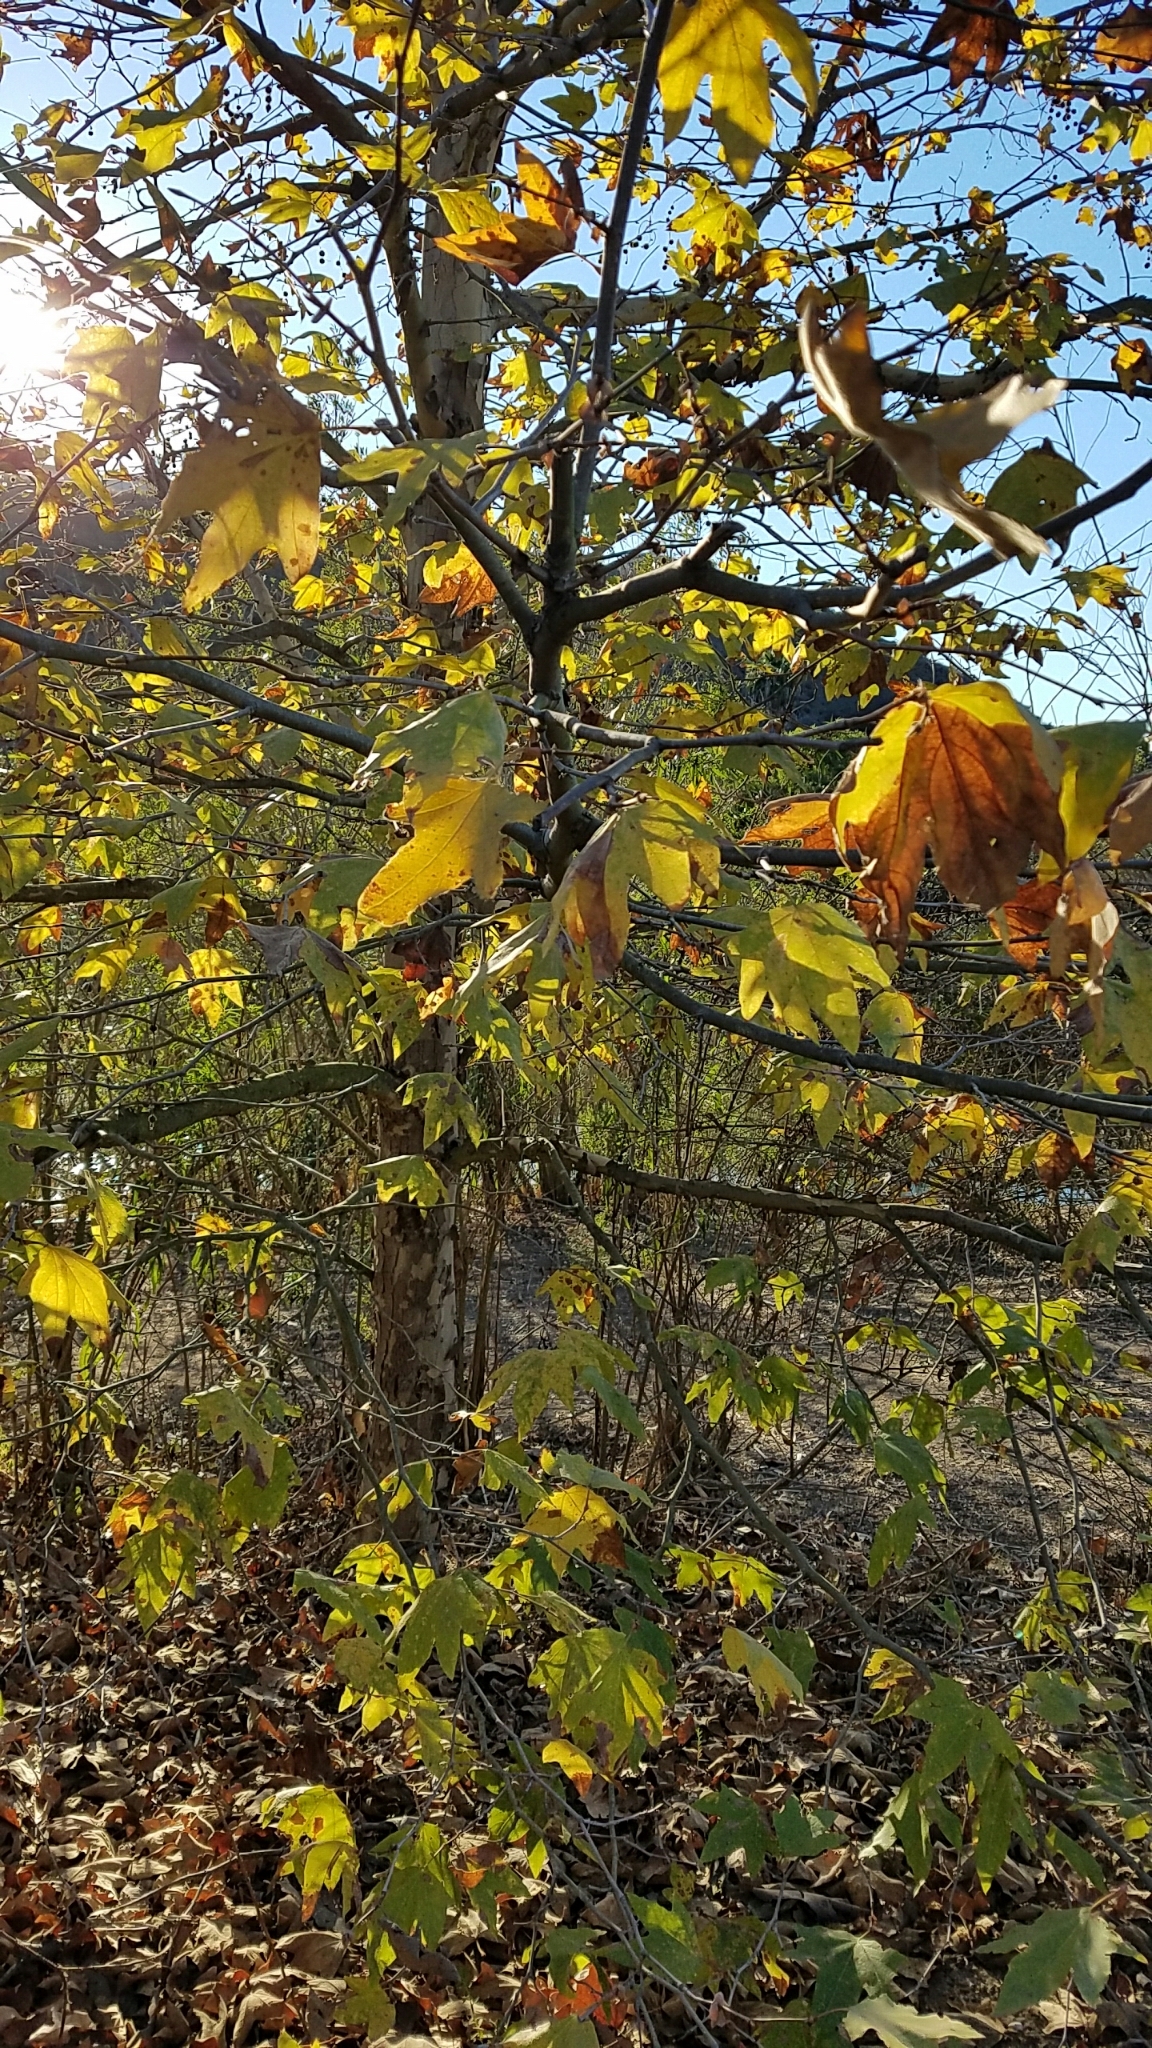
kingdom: Plantae
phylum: Tracheophyta
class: Magnoliopsida
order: Proteales
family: Platanaceae
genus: Platanus
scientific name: Platanus racemosa
